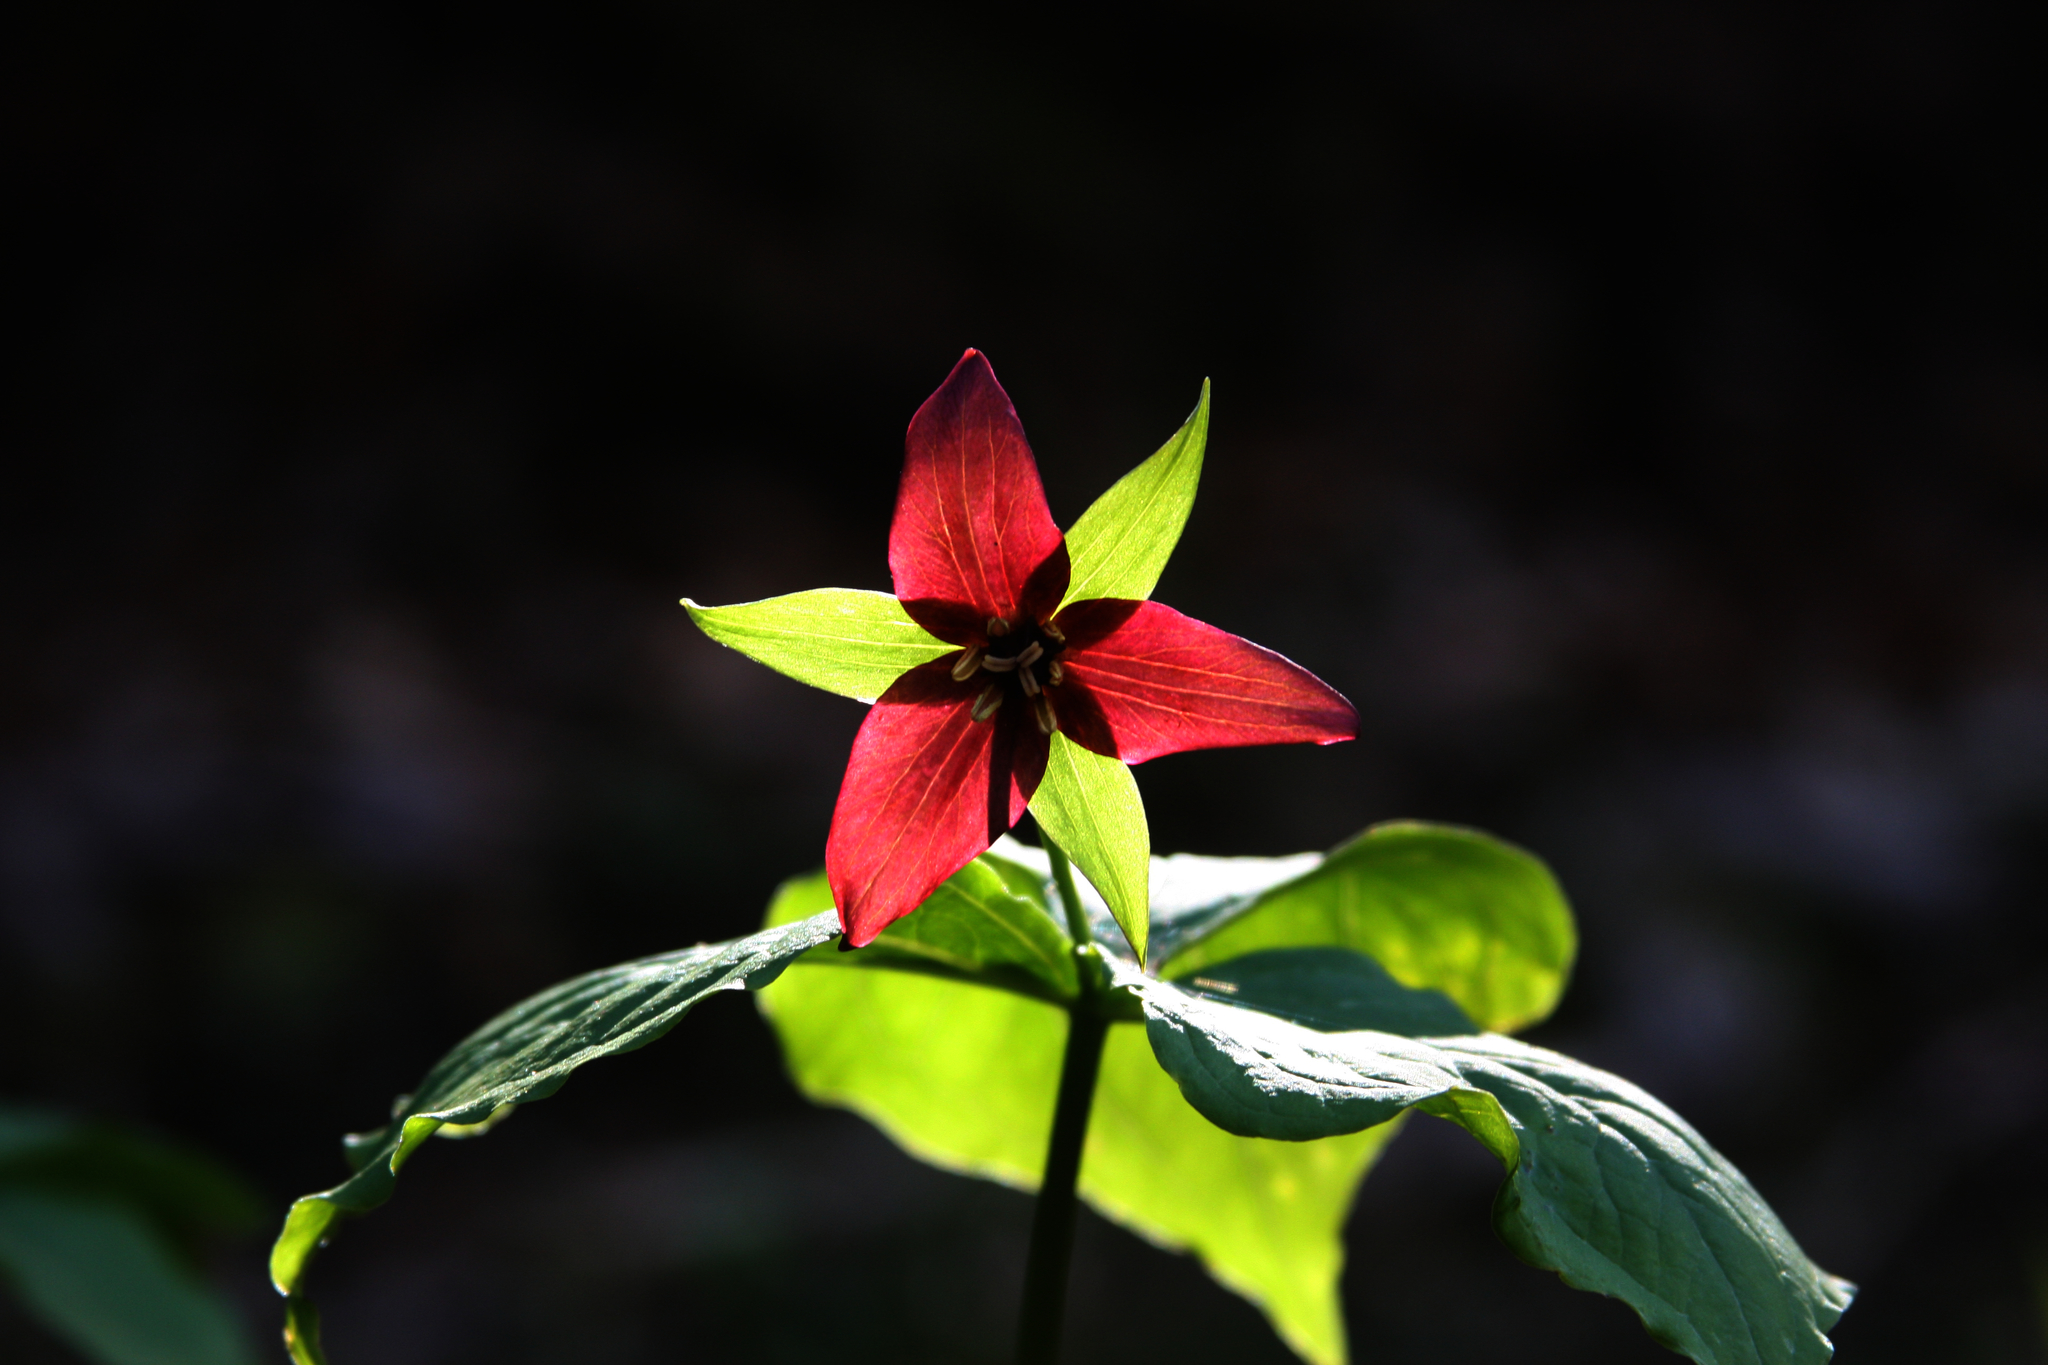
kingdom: Plantae
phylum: Tracheophyta
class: Liliopsida
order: Liliales
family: Melanthiaceae
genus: Trillium
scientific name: Trillium erectum
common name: Purple trillium
